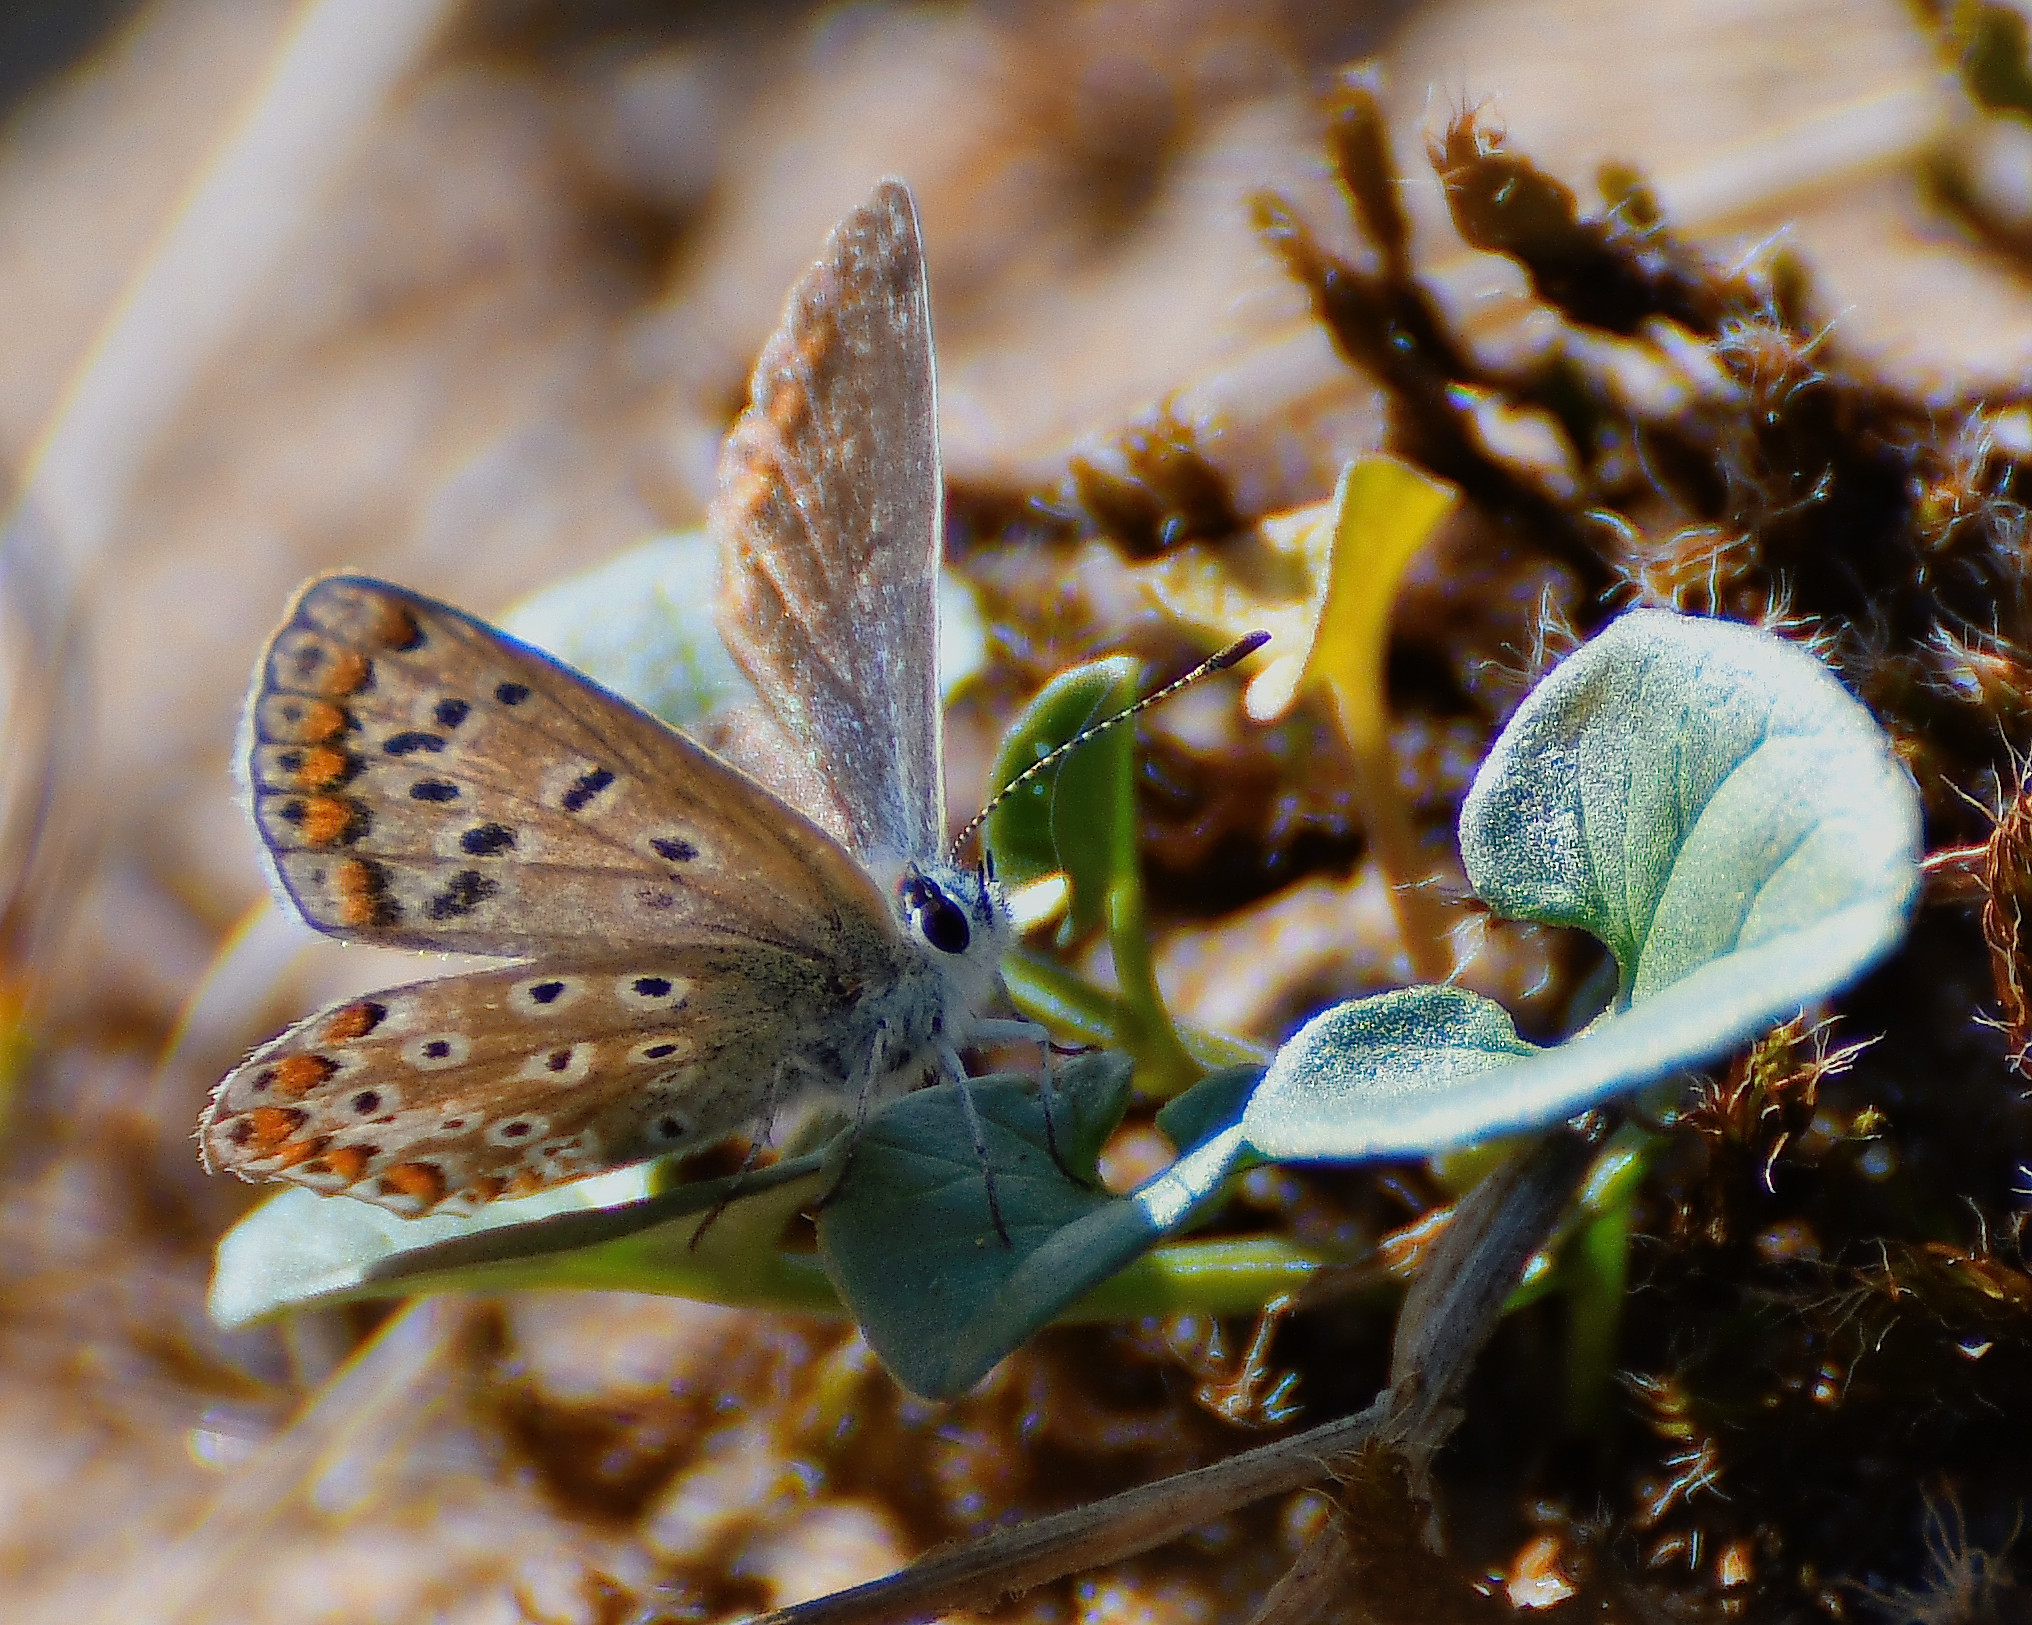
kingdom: Animalia
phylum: Arthropoda
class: Insecta
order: Lepidoptera
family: Lycaenidae
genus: Polyommatus
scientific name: Polyommatus icarus
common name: Common blue
